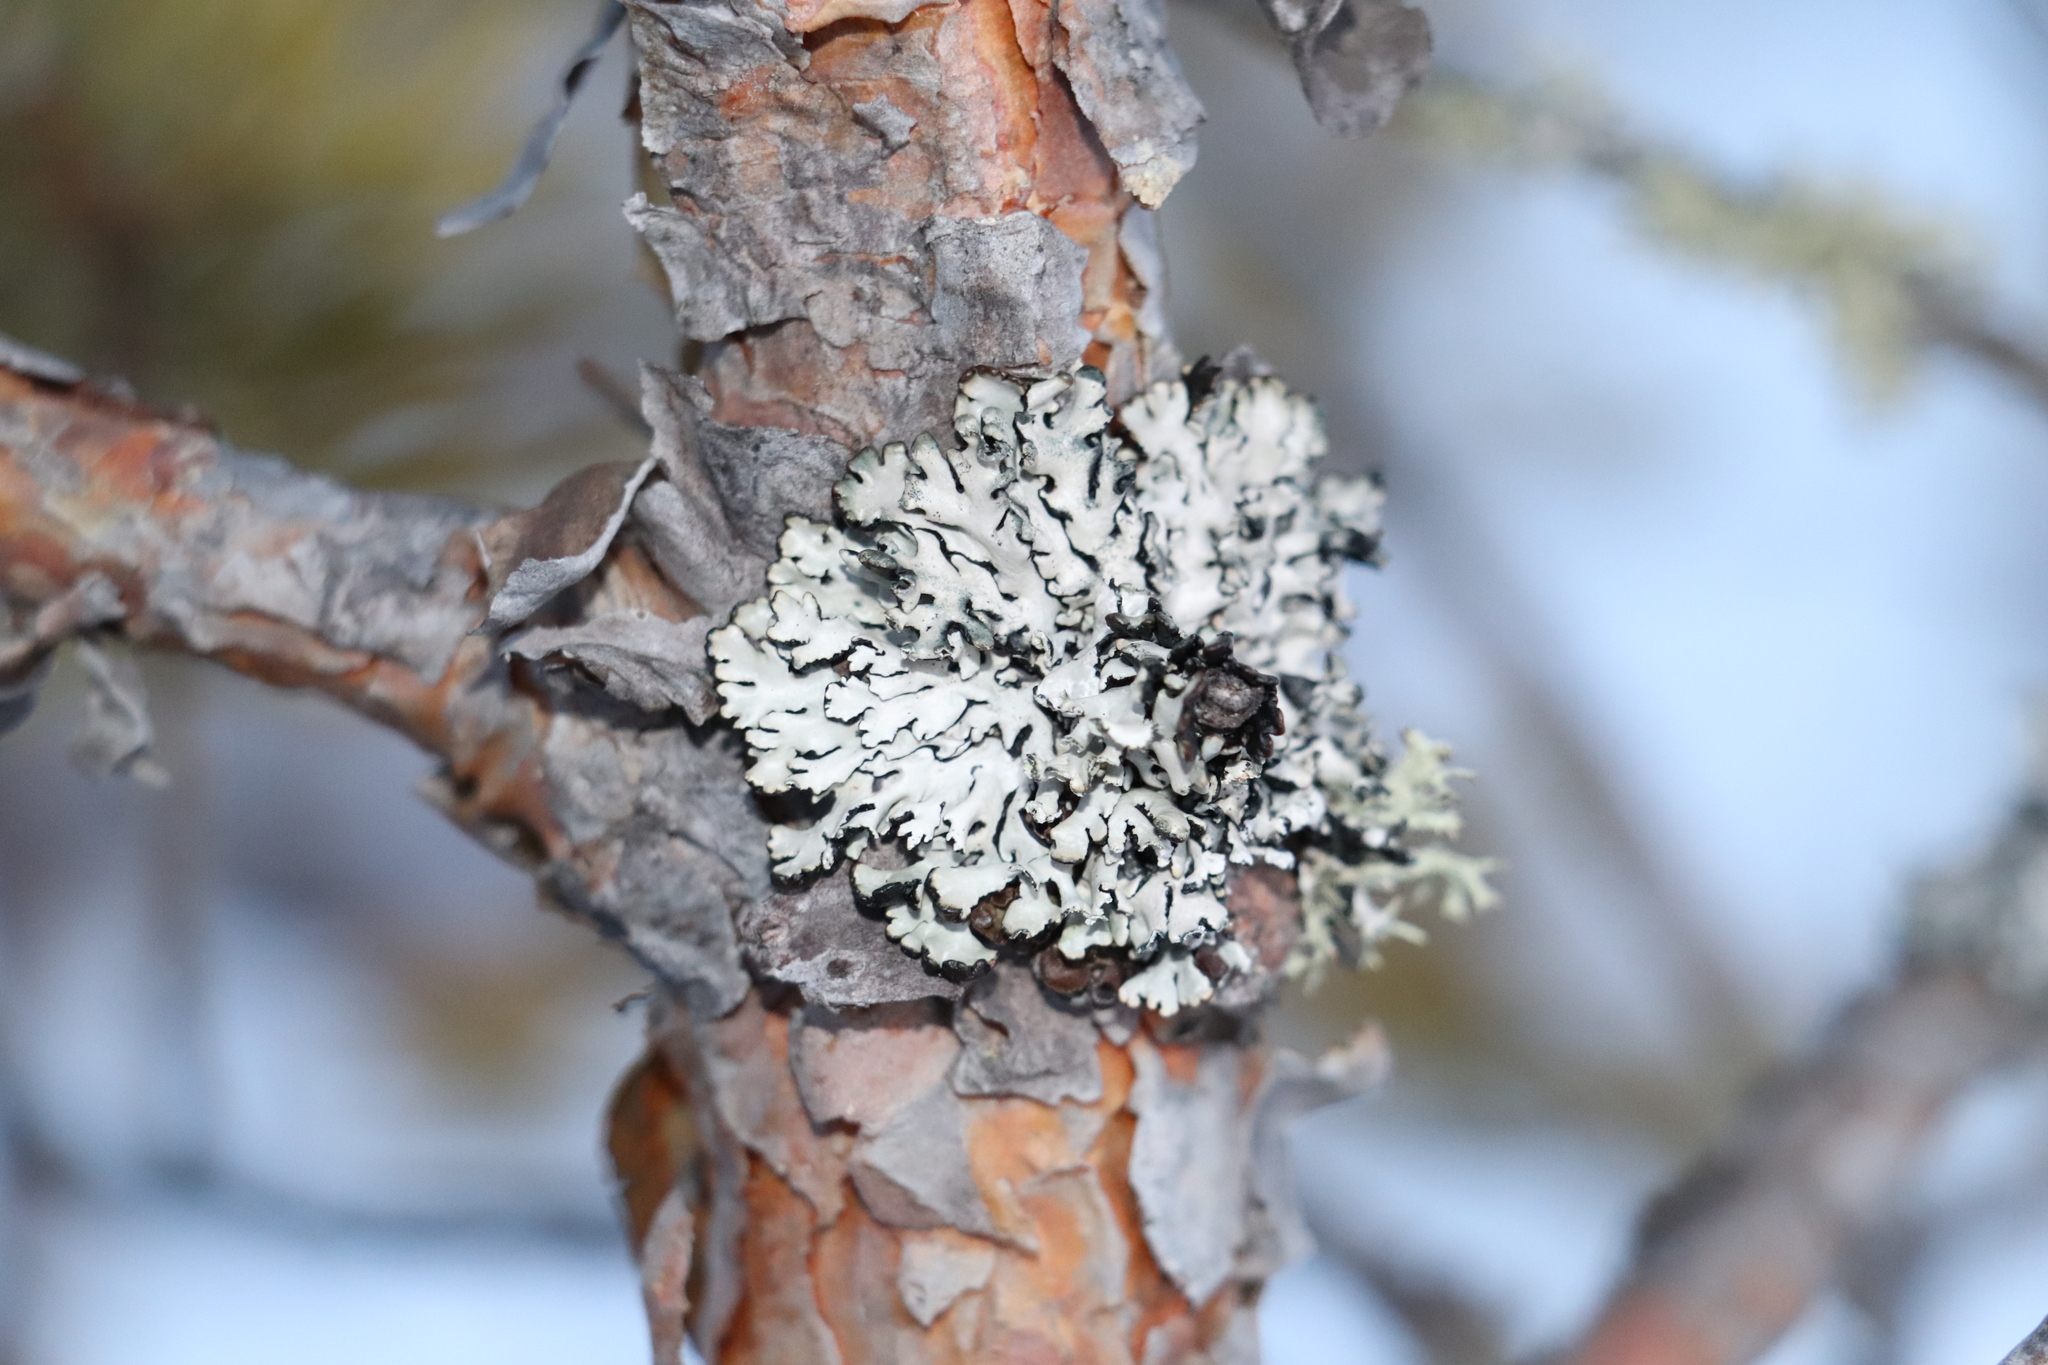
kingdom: Fungi
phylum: Ascomycota
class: Lecanoromycetes
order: Lecanorales
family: Parmeliaceae
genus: Hypogymnia
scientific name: Hypogymnia physodes
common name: Dark crottle
